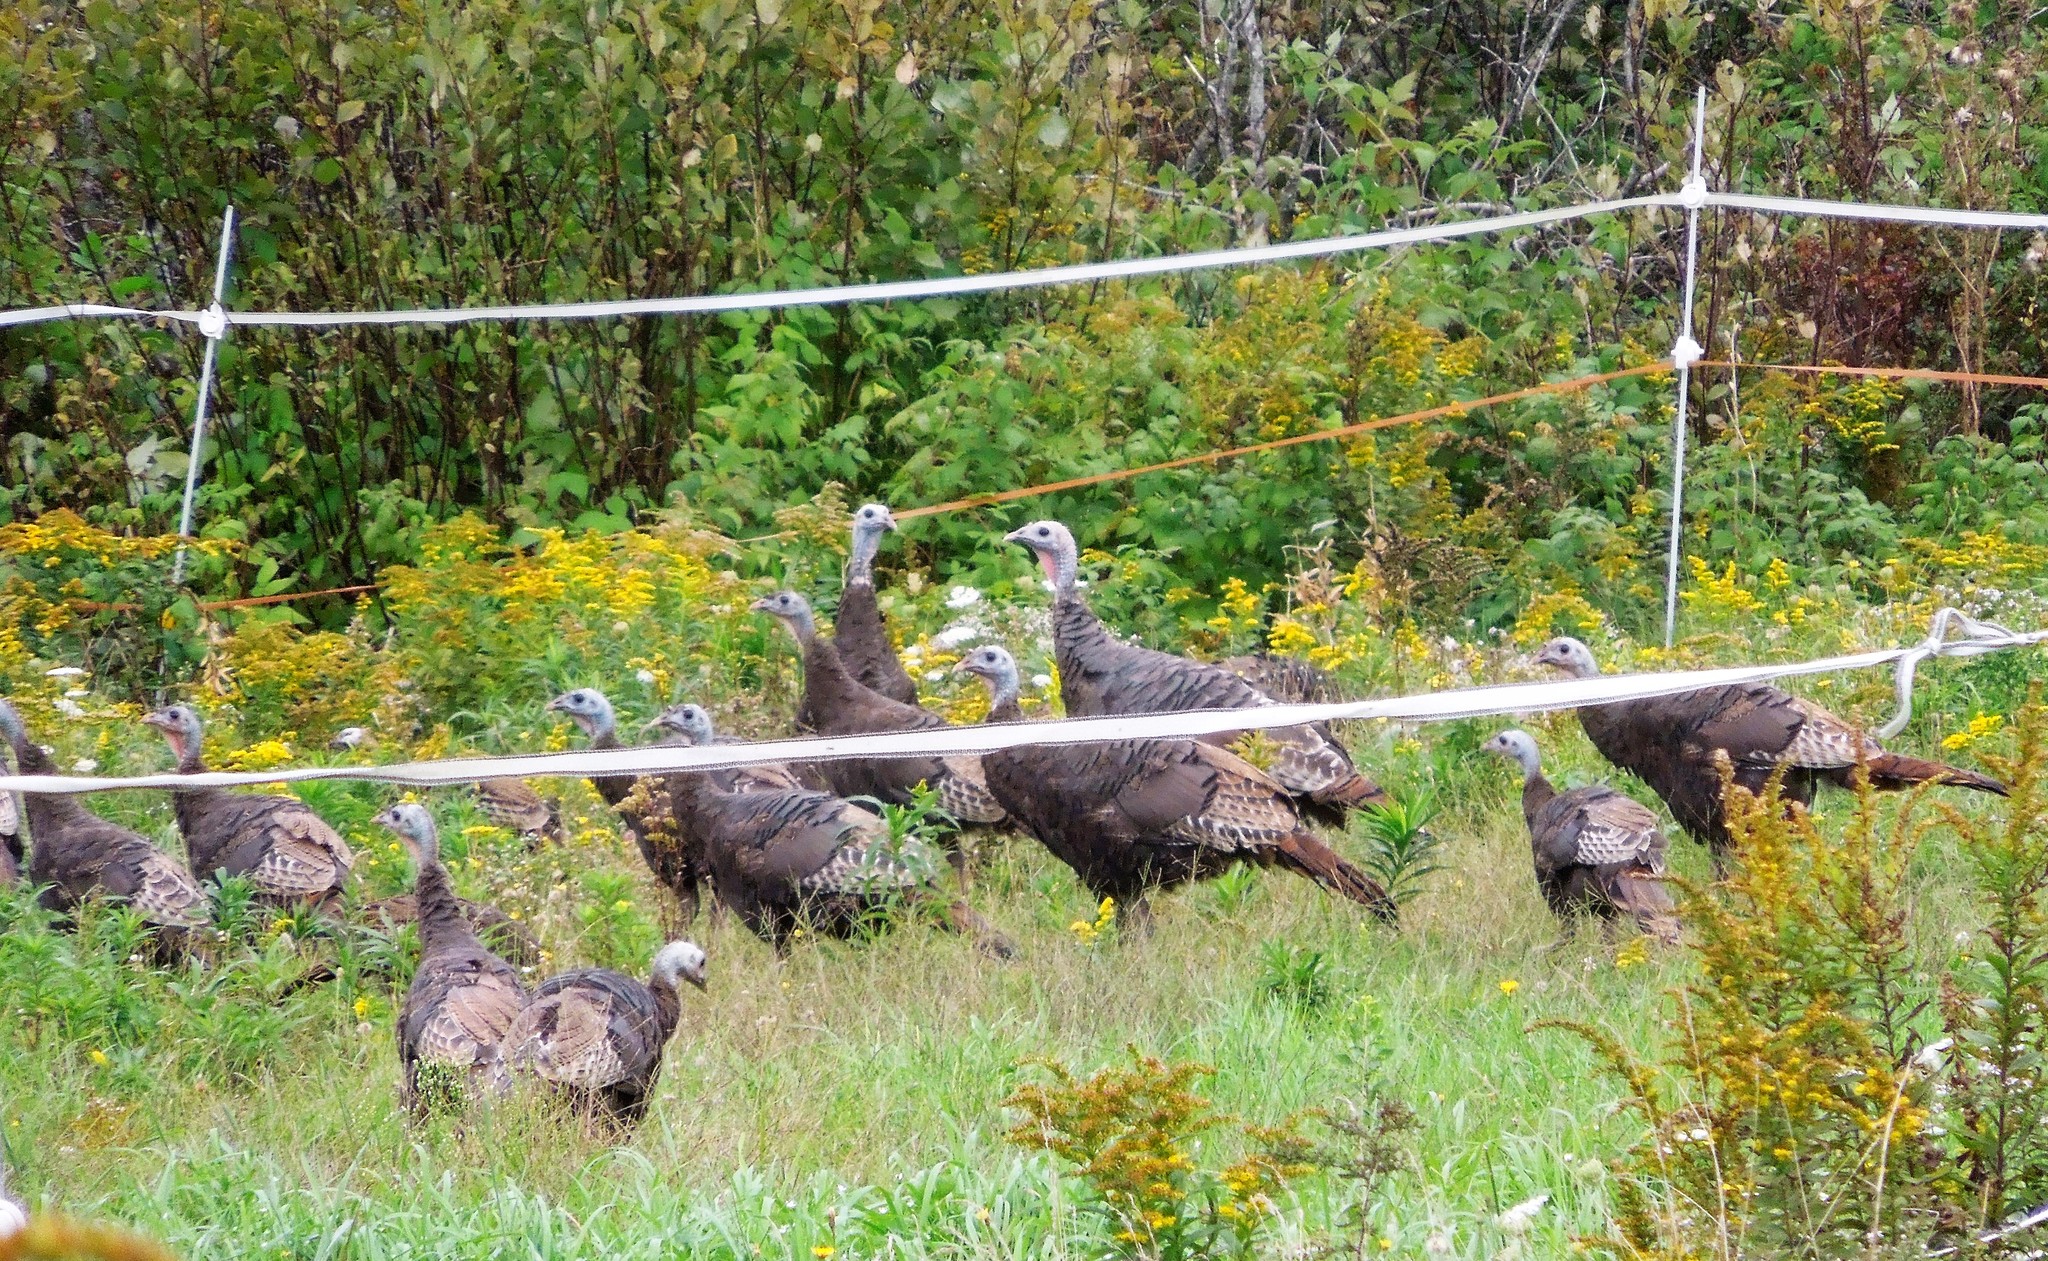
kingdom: Animalia
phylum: Chordata
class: Aves
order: Galliformes
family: Phasianidae
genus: Meleagris
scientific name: Meleagris gallopavo
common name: Wild turkey
